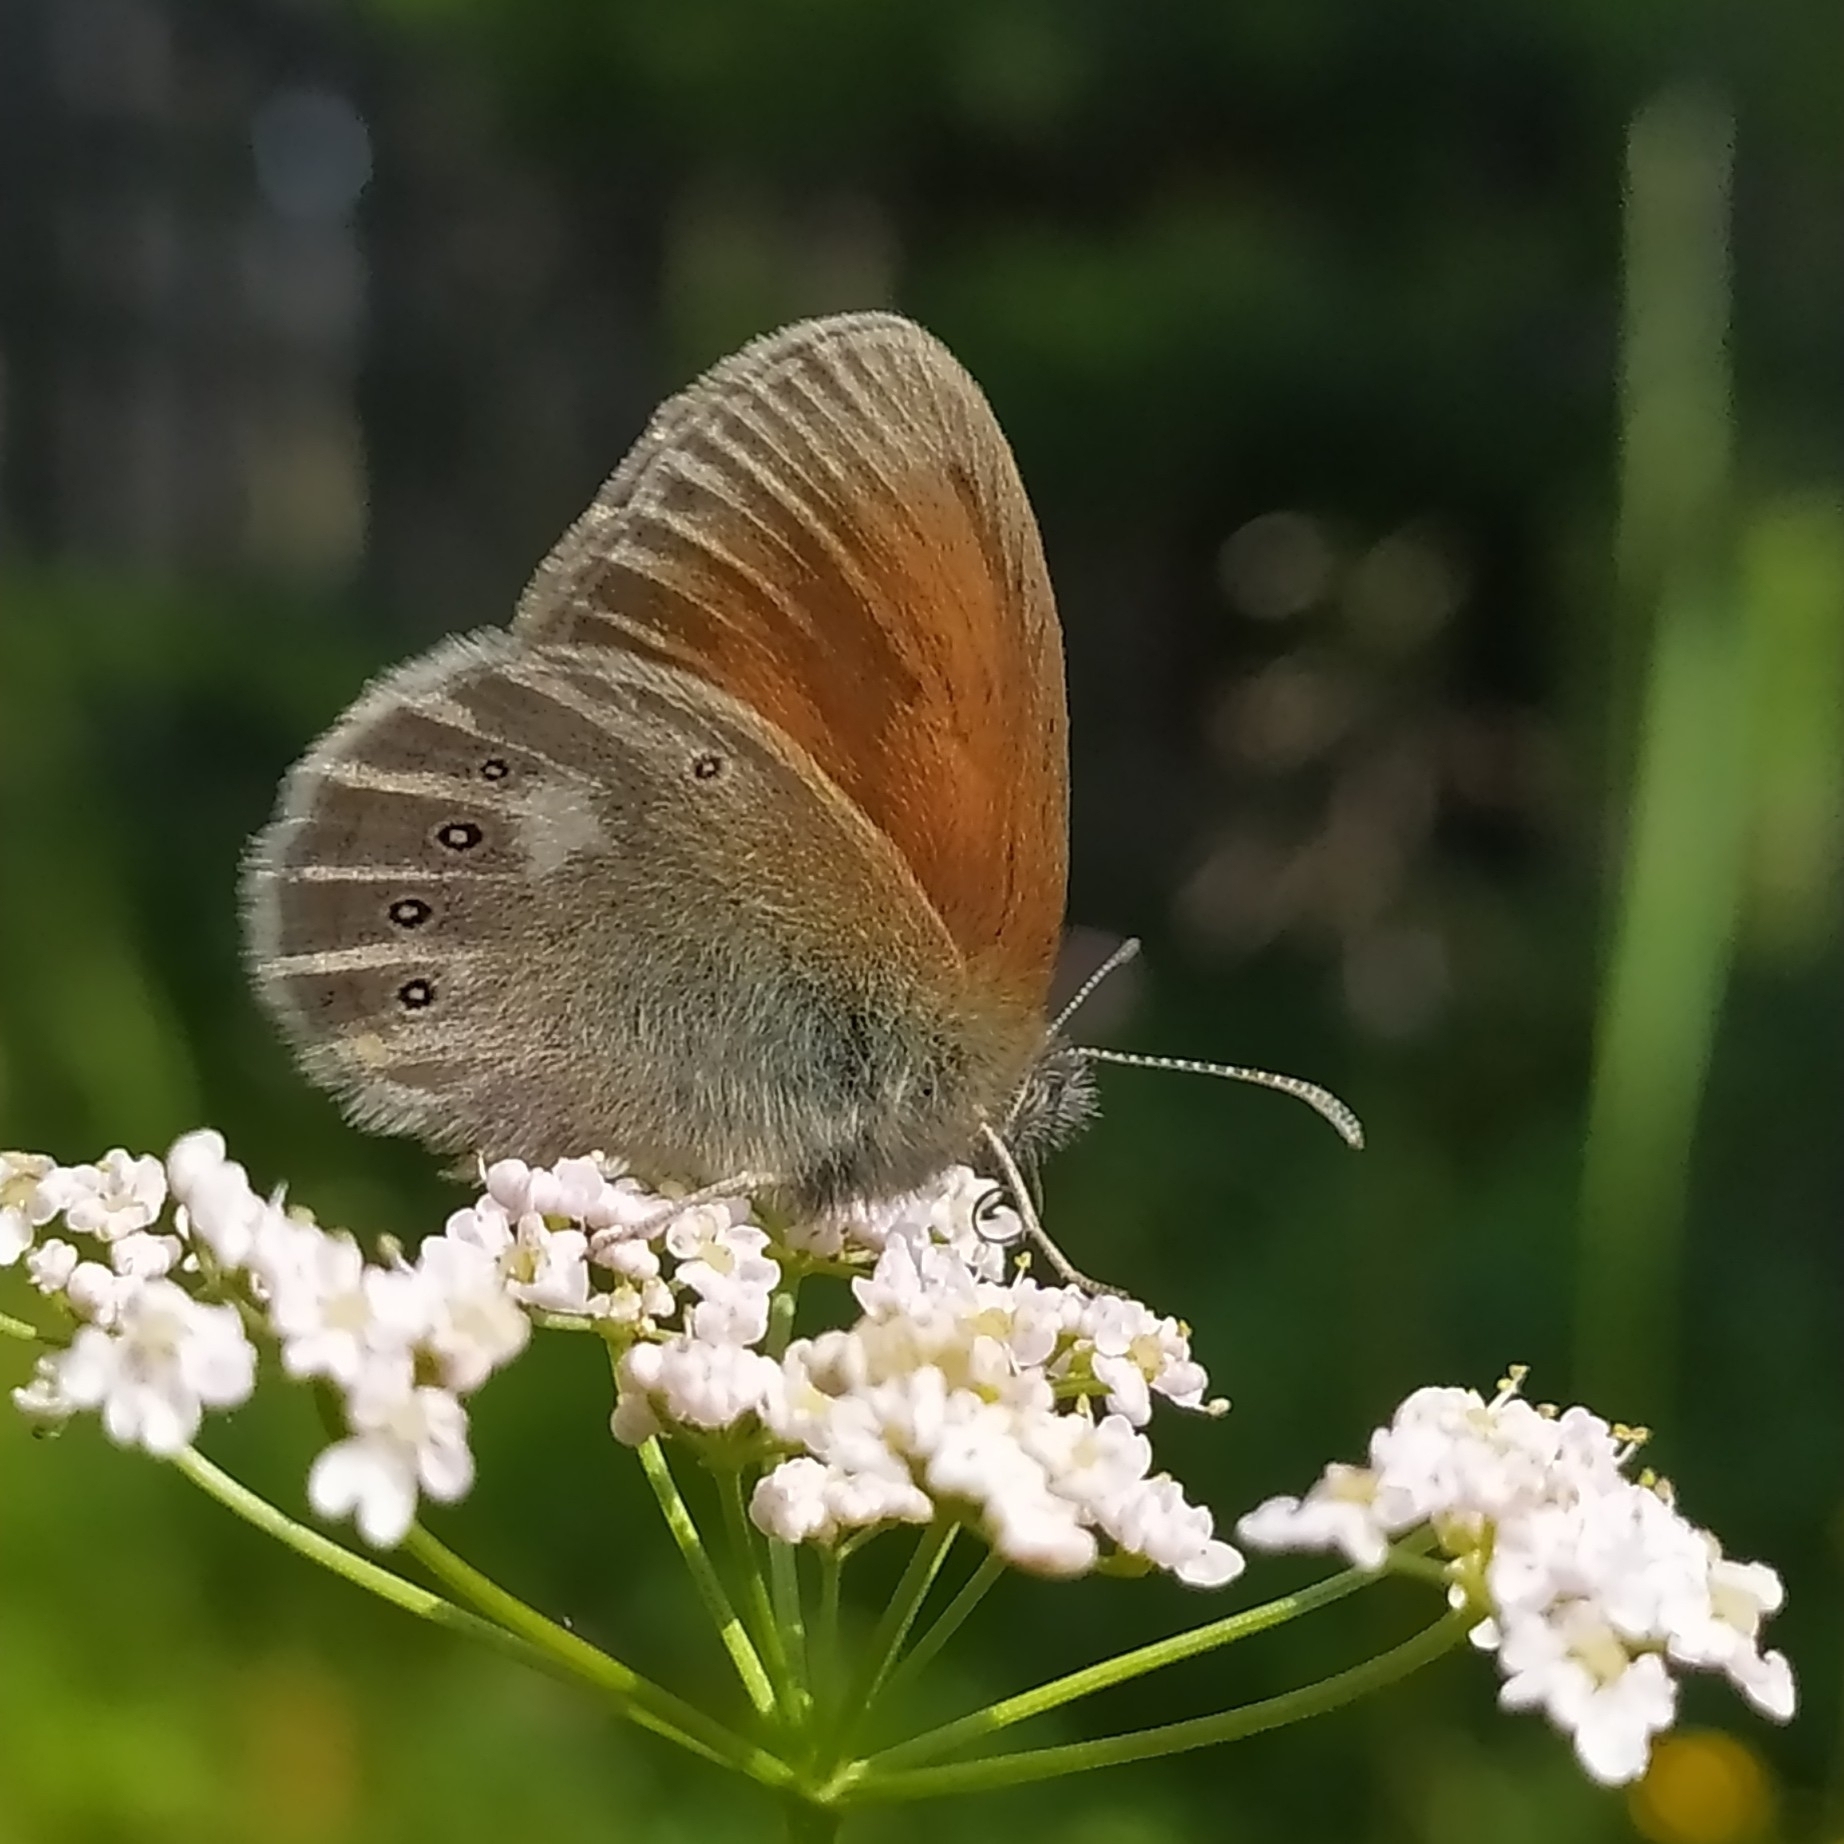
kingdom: Animalia
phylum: Arthropoda
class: Insecta
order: Lepidoptera
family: Nymphalidae
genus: Coenonympha
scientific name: Coenonympha iphis
